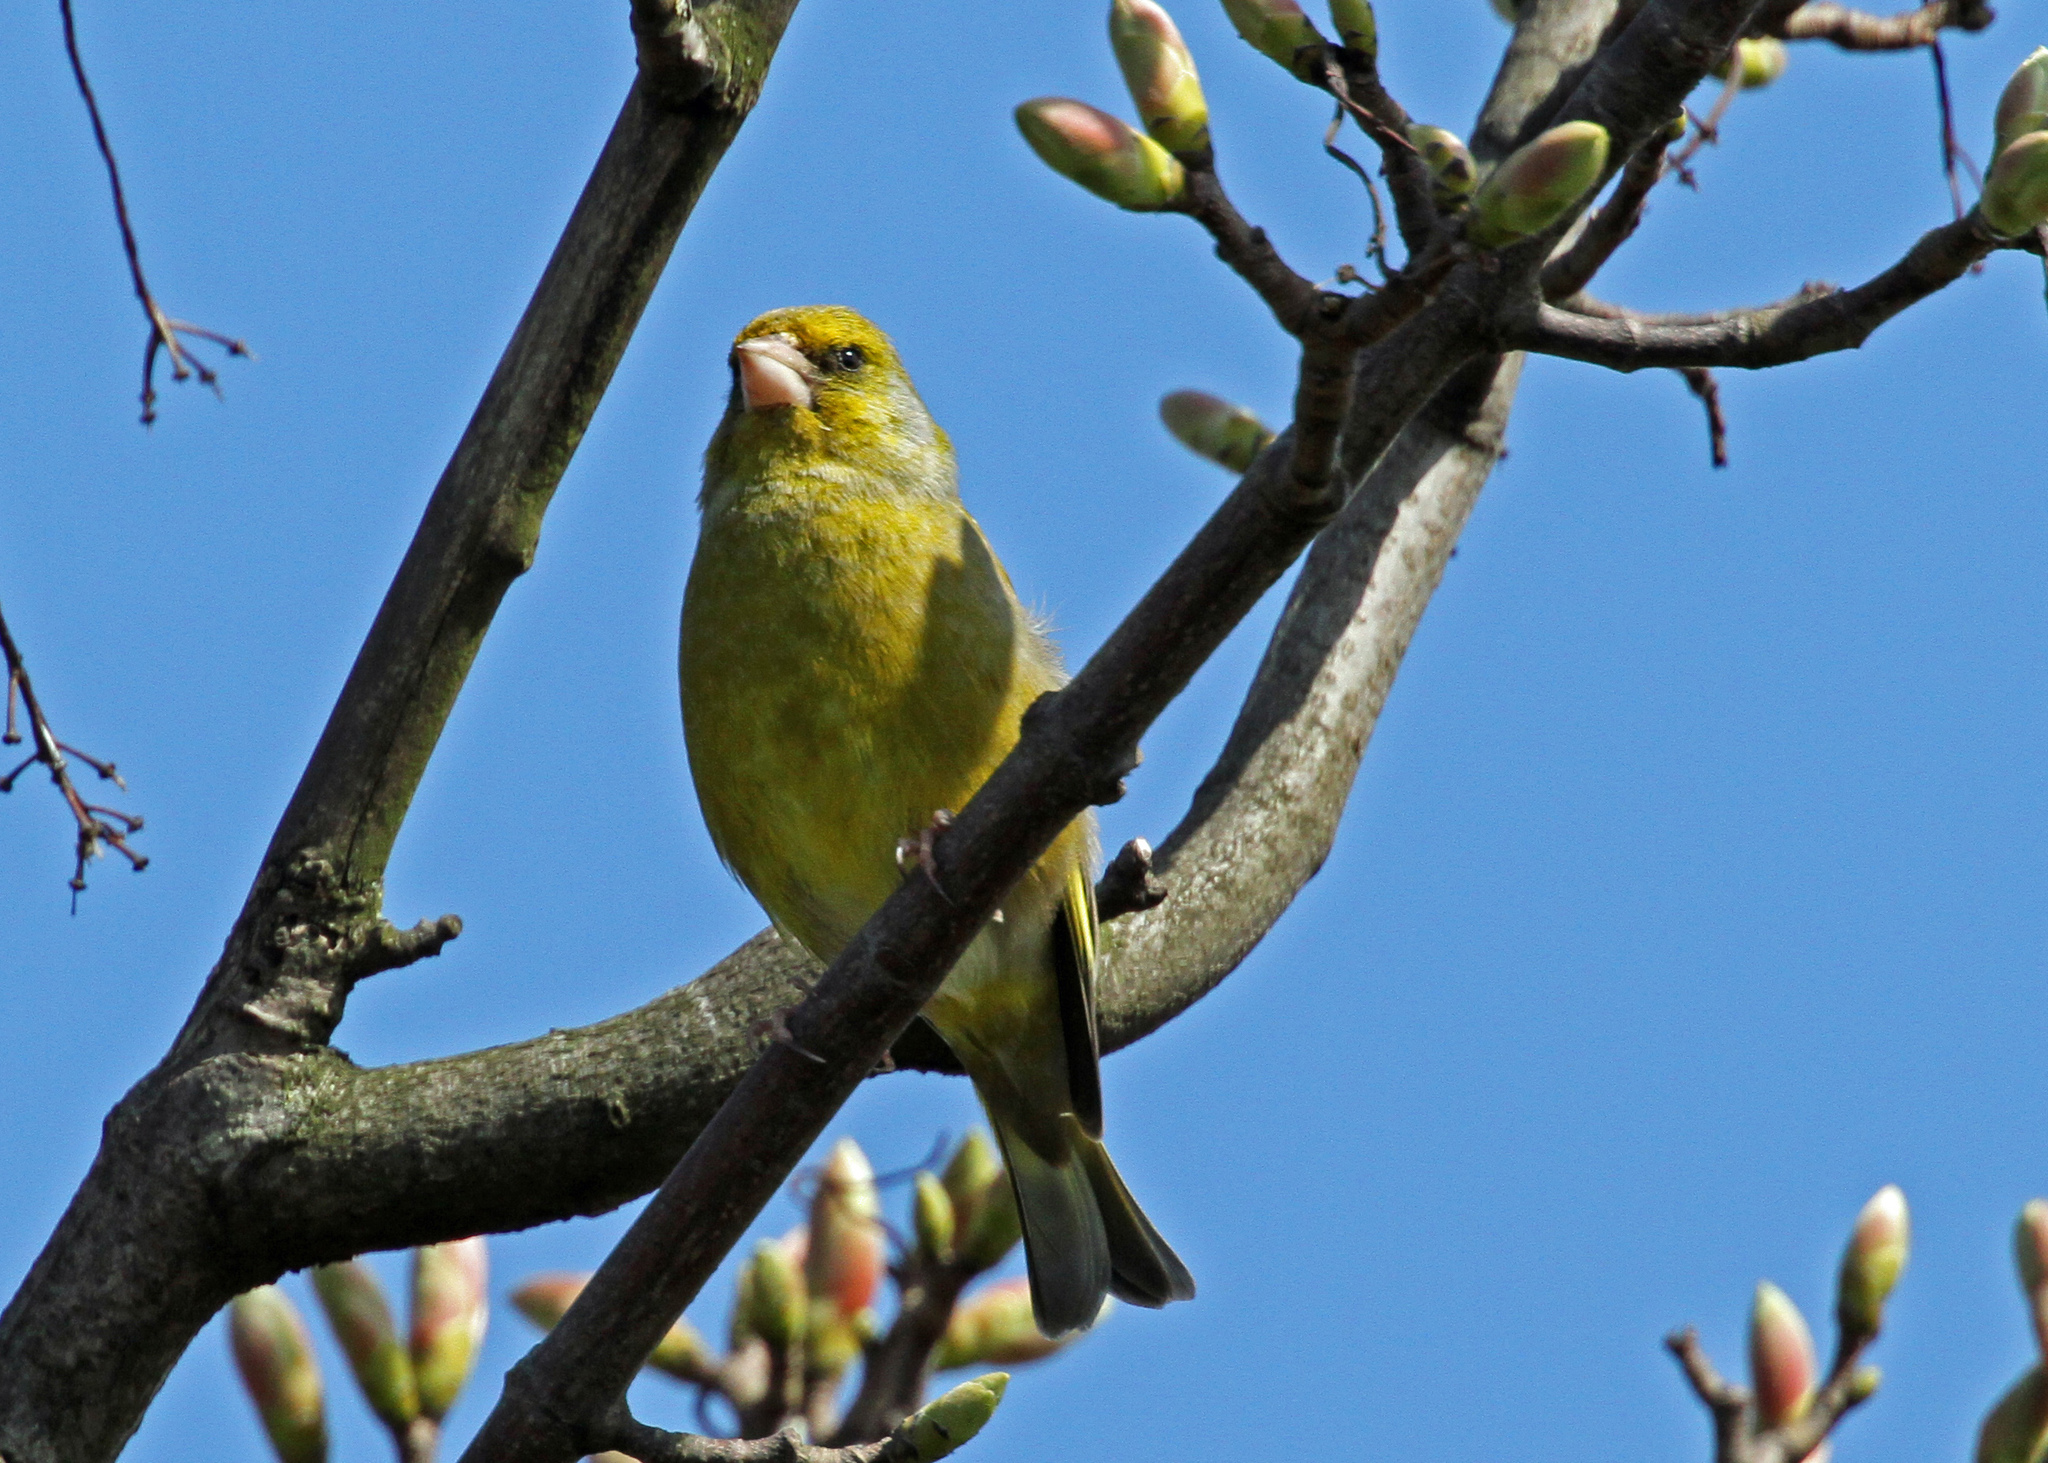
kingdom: Plantae
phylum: Tracheophyta
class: Liliopsida
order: Poales
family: Poaceae
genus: Chloris
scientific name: Chloris chloris
